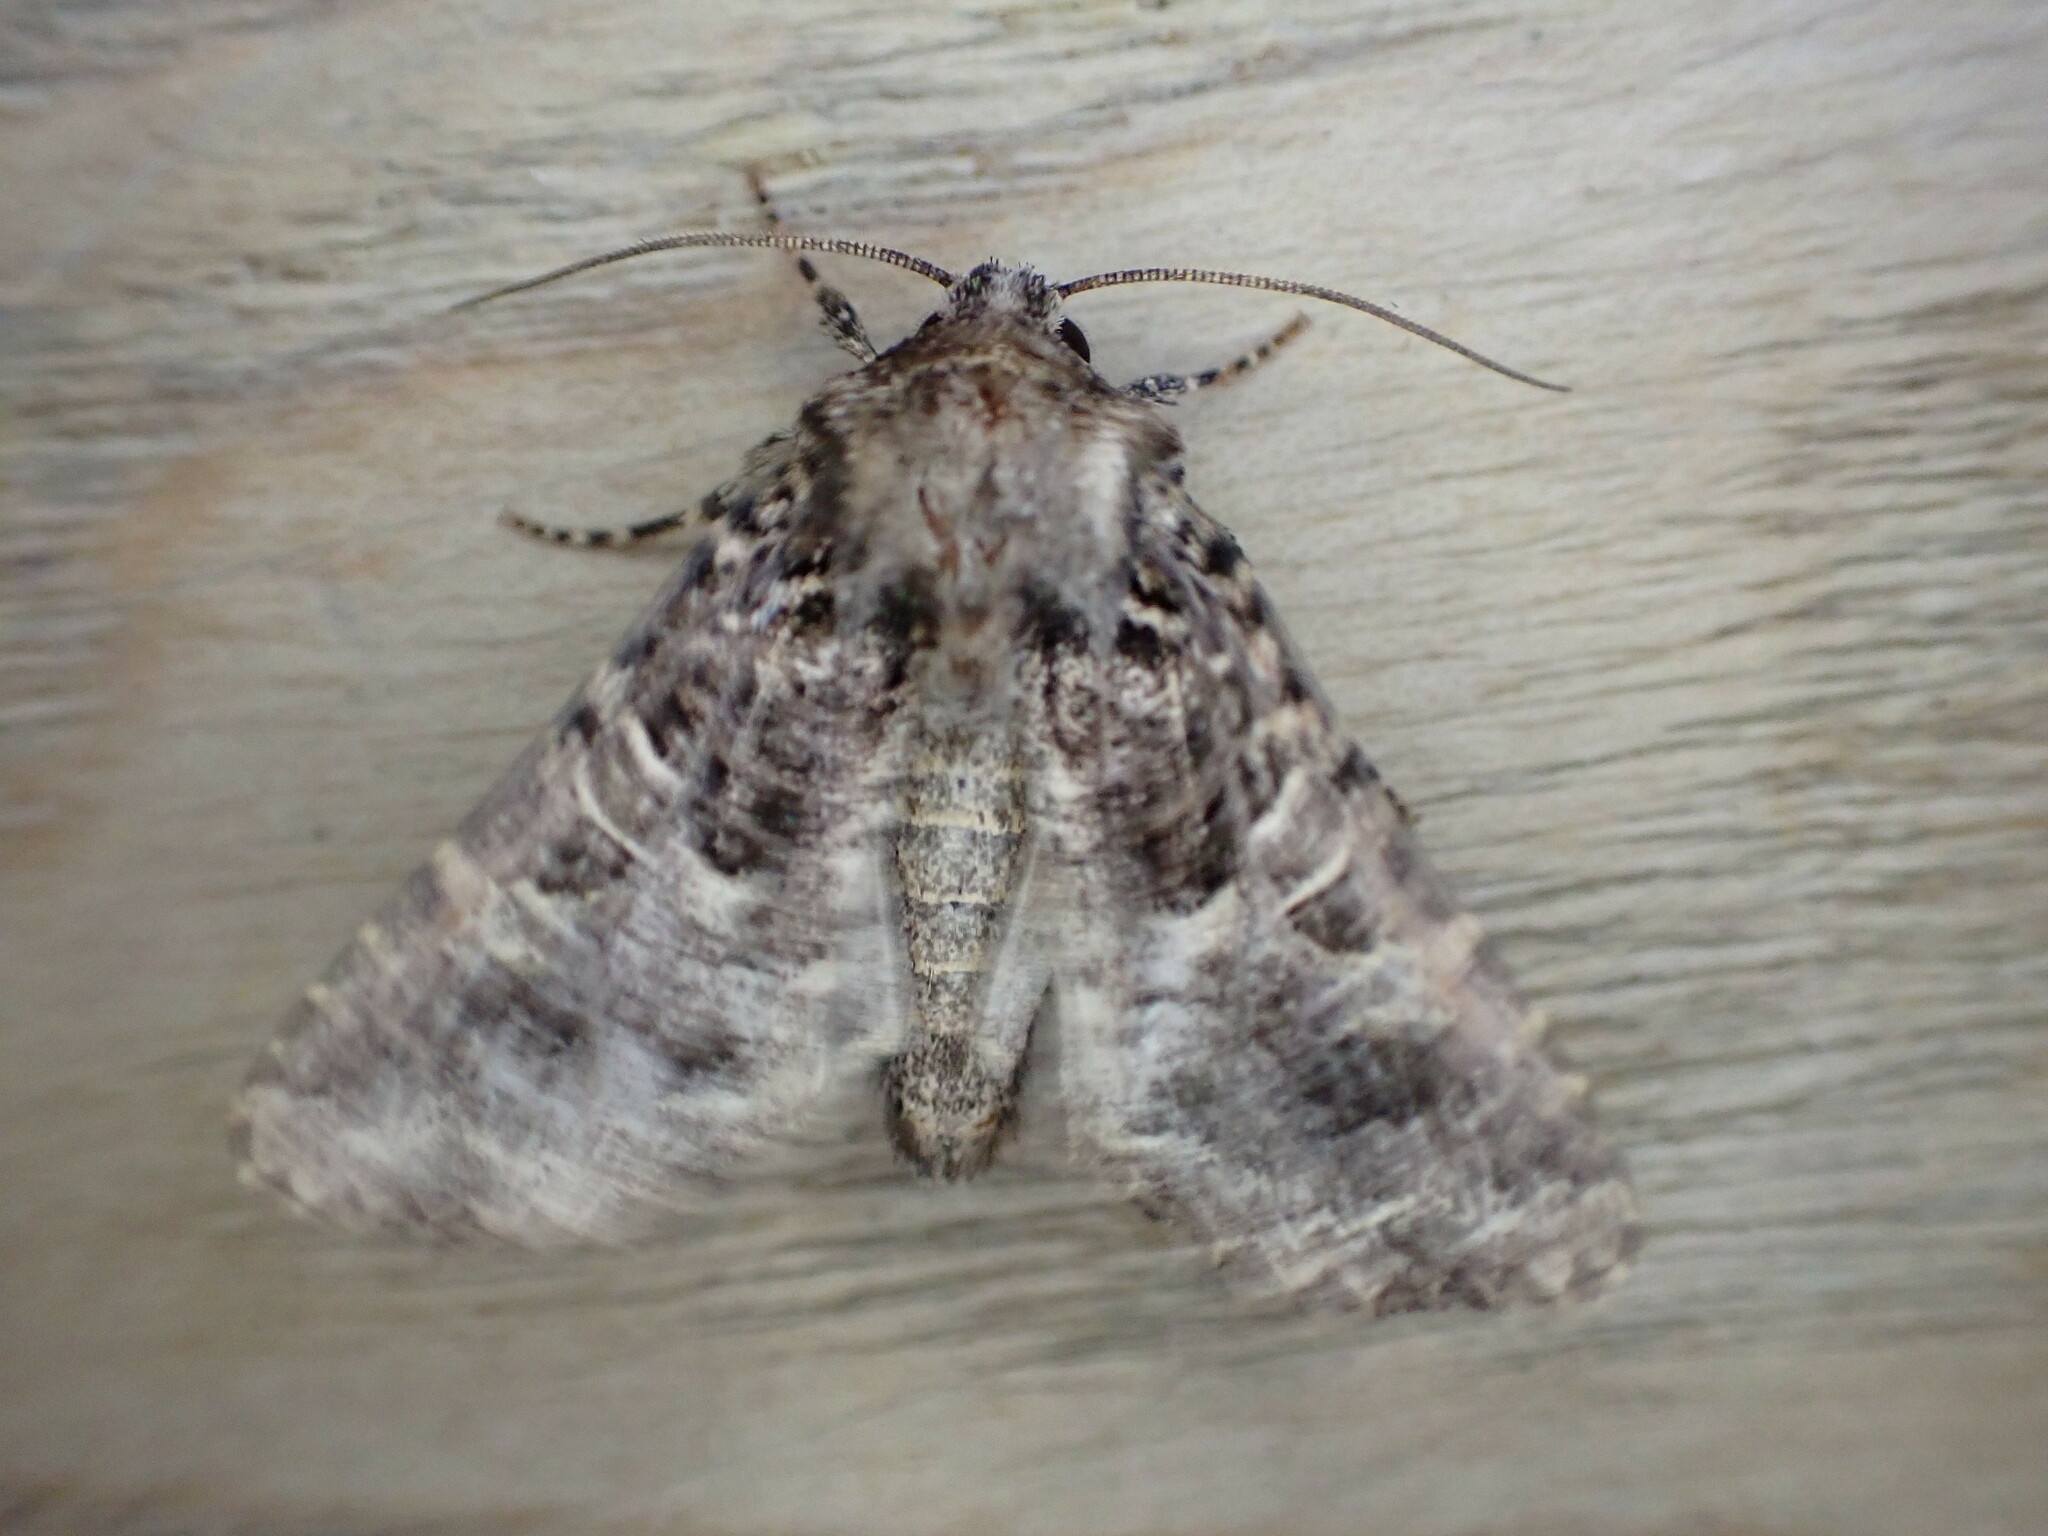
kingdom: Animalia
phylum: Arthropoda
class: Insecta
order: Lepidoptera
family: Noctuidae
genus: Hadena
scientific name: Hadena bicruris
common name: Lychnis
